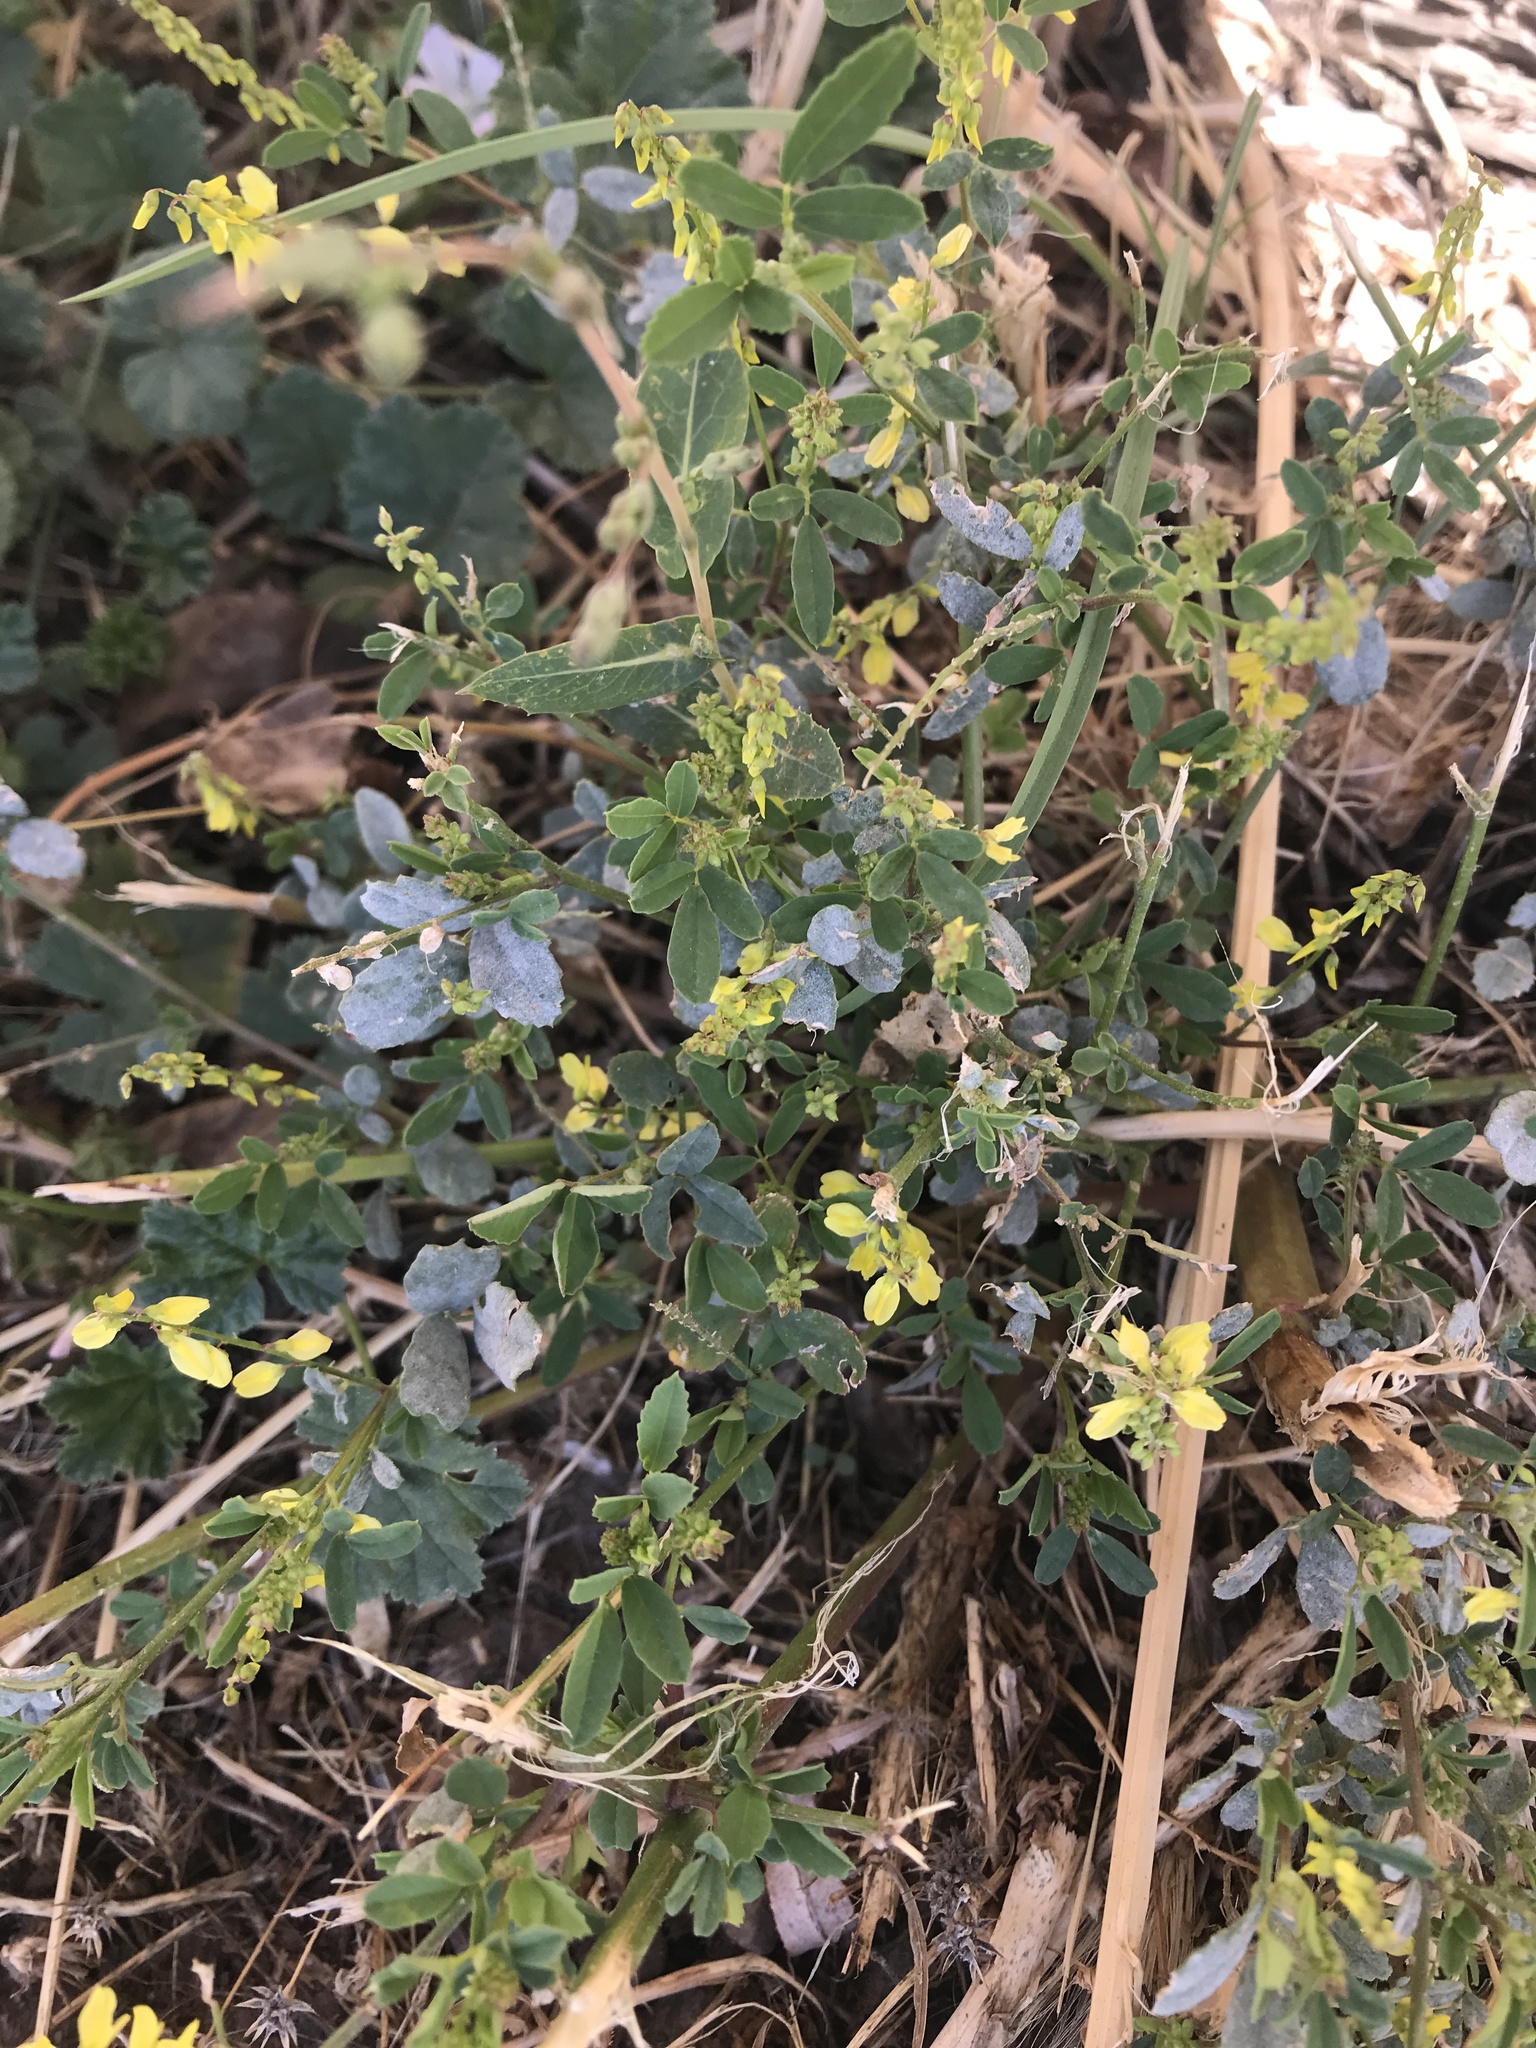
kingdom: Plantae
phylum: Tracheophyta
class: Magnoliopsida
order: Fabales
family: Fabaceae
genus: Melilotus
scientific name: Melilotus officinalis
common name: Sweetclover
